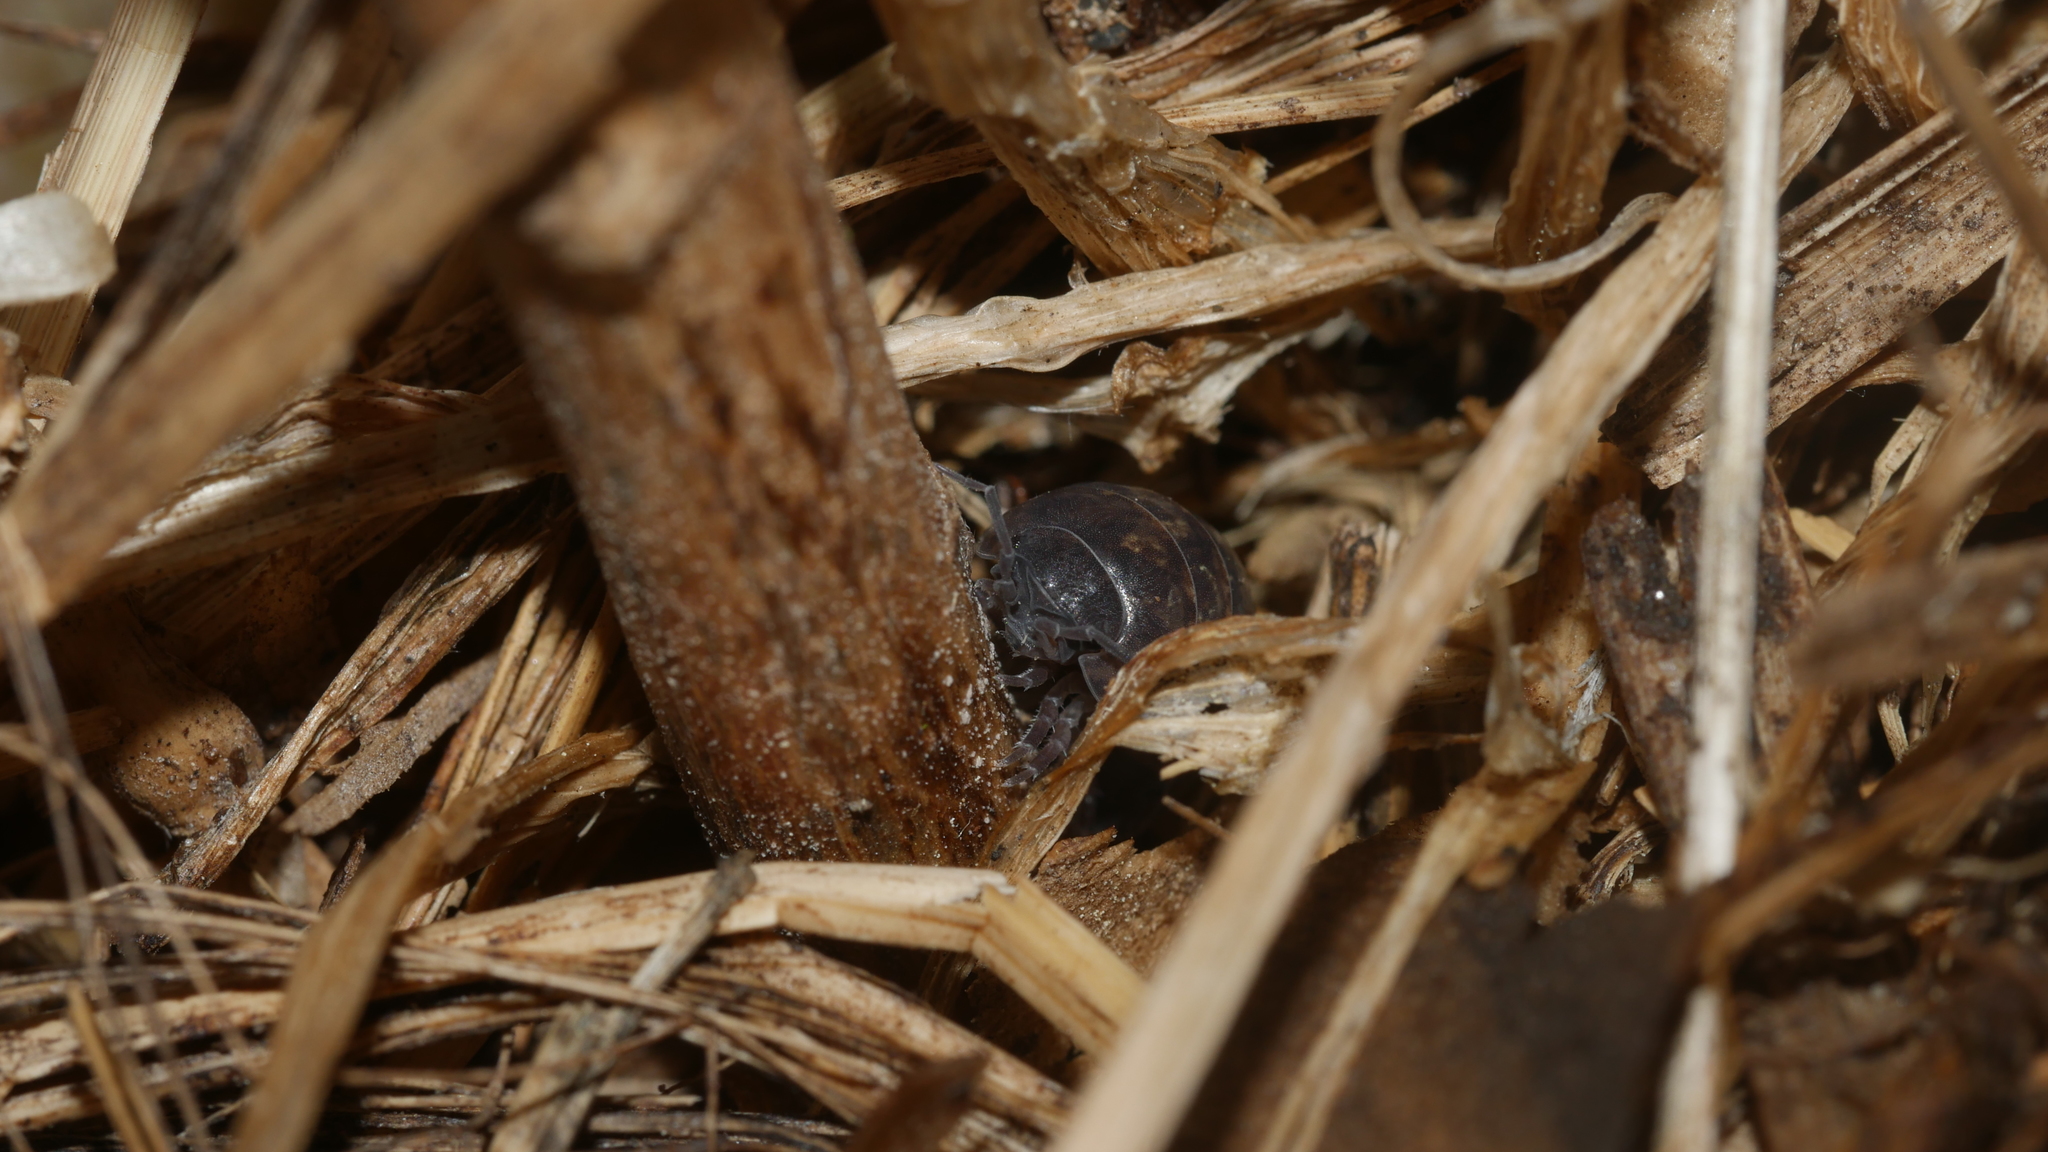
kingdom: Animalia
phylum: Arthropoda
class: Malacostraca
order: Isopoda
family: Armadillidiidae
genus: Armadillidium
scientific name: Armadillidium vulgare
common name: Common pill woodlouse
